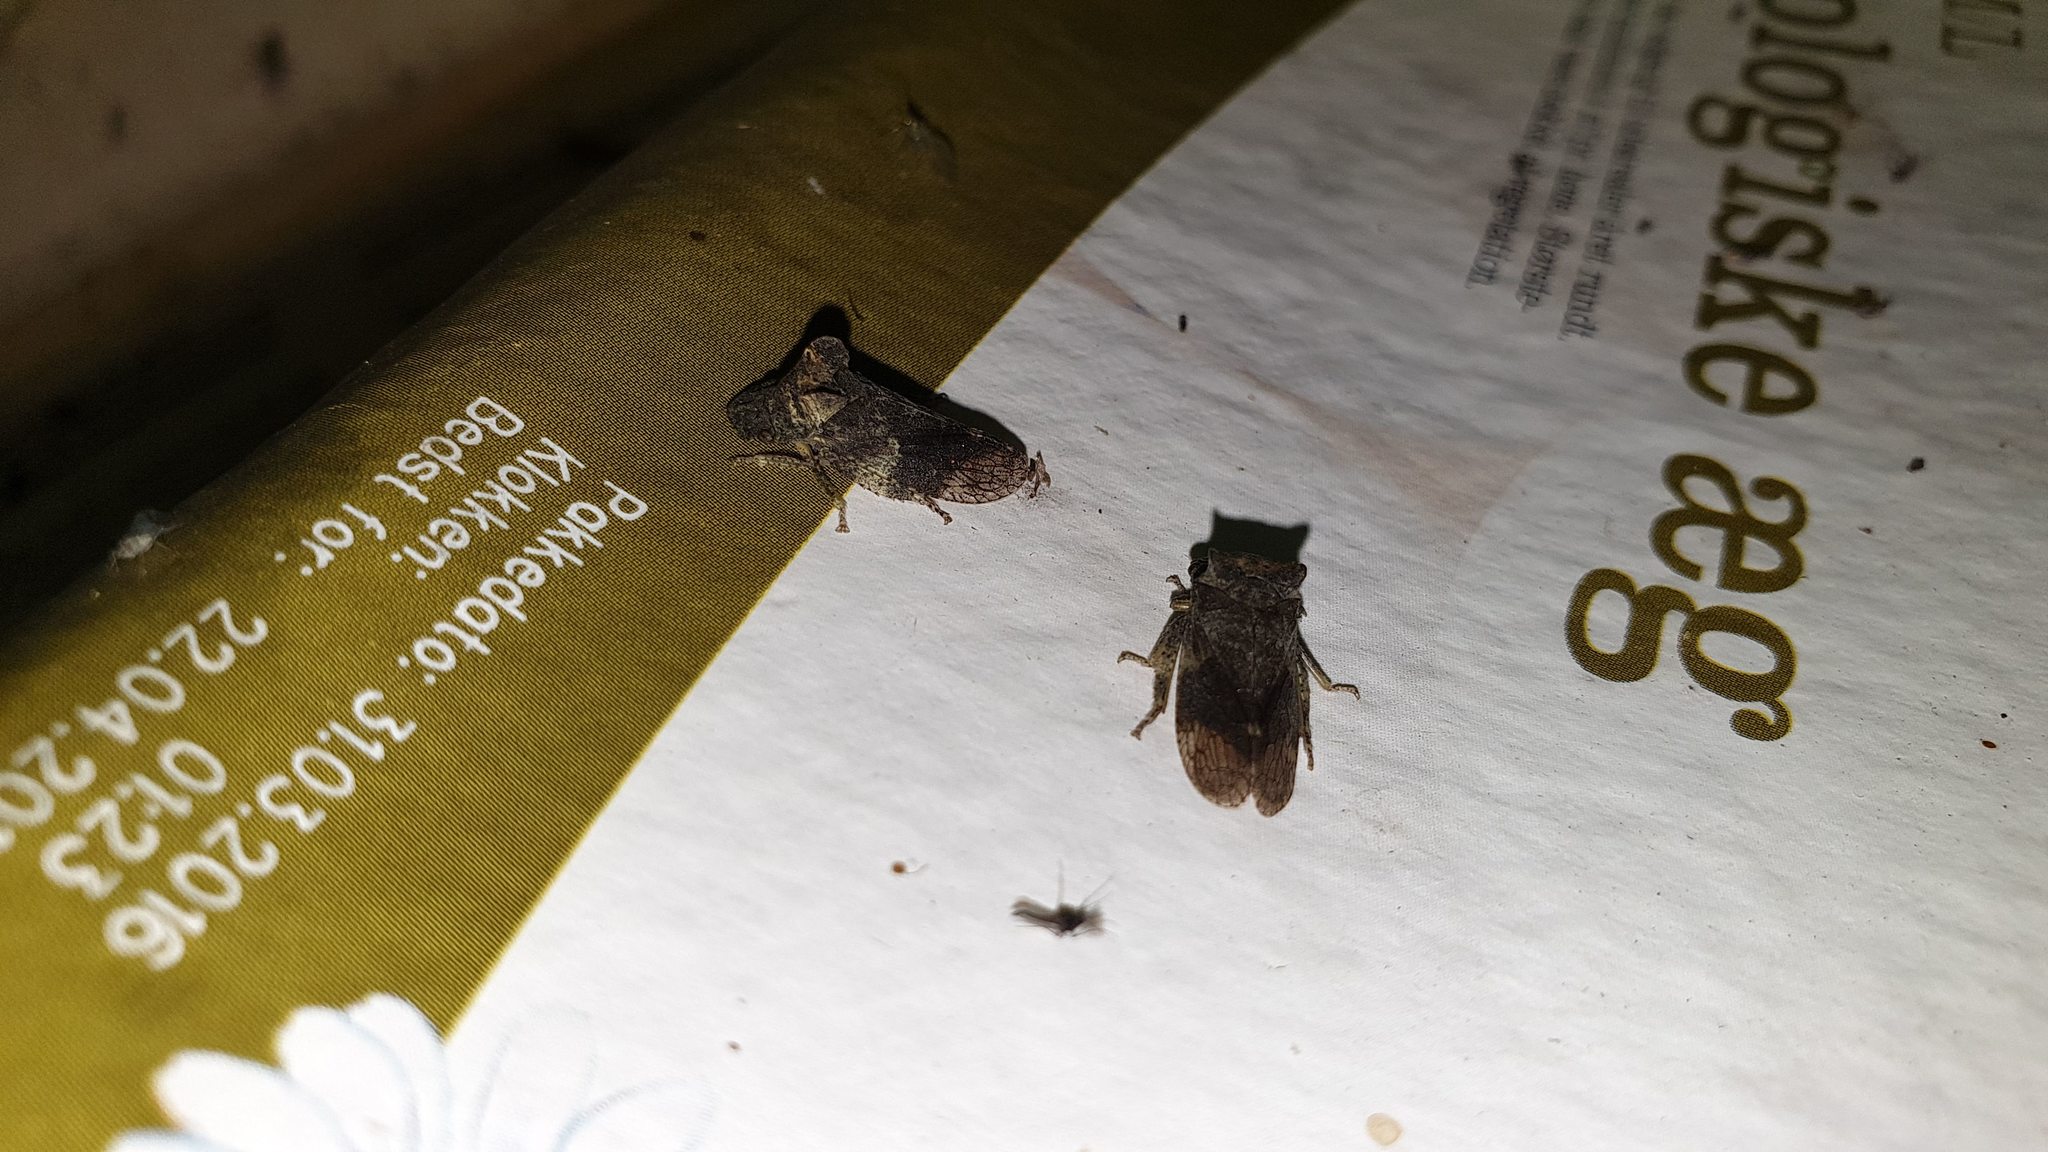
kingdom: Animalia
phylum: Arthropoda
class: Insecta
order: Hemiptera
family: Cicadellidae
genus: Ledra
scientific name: Ledra aurita
